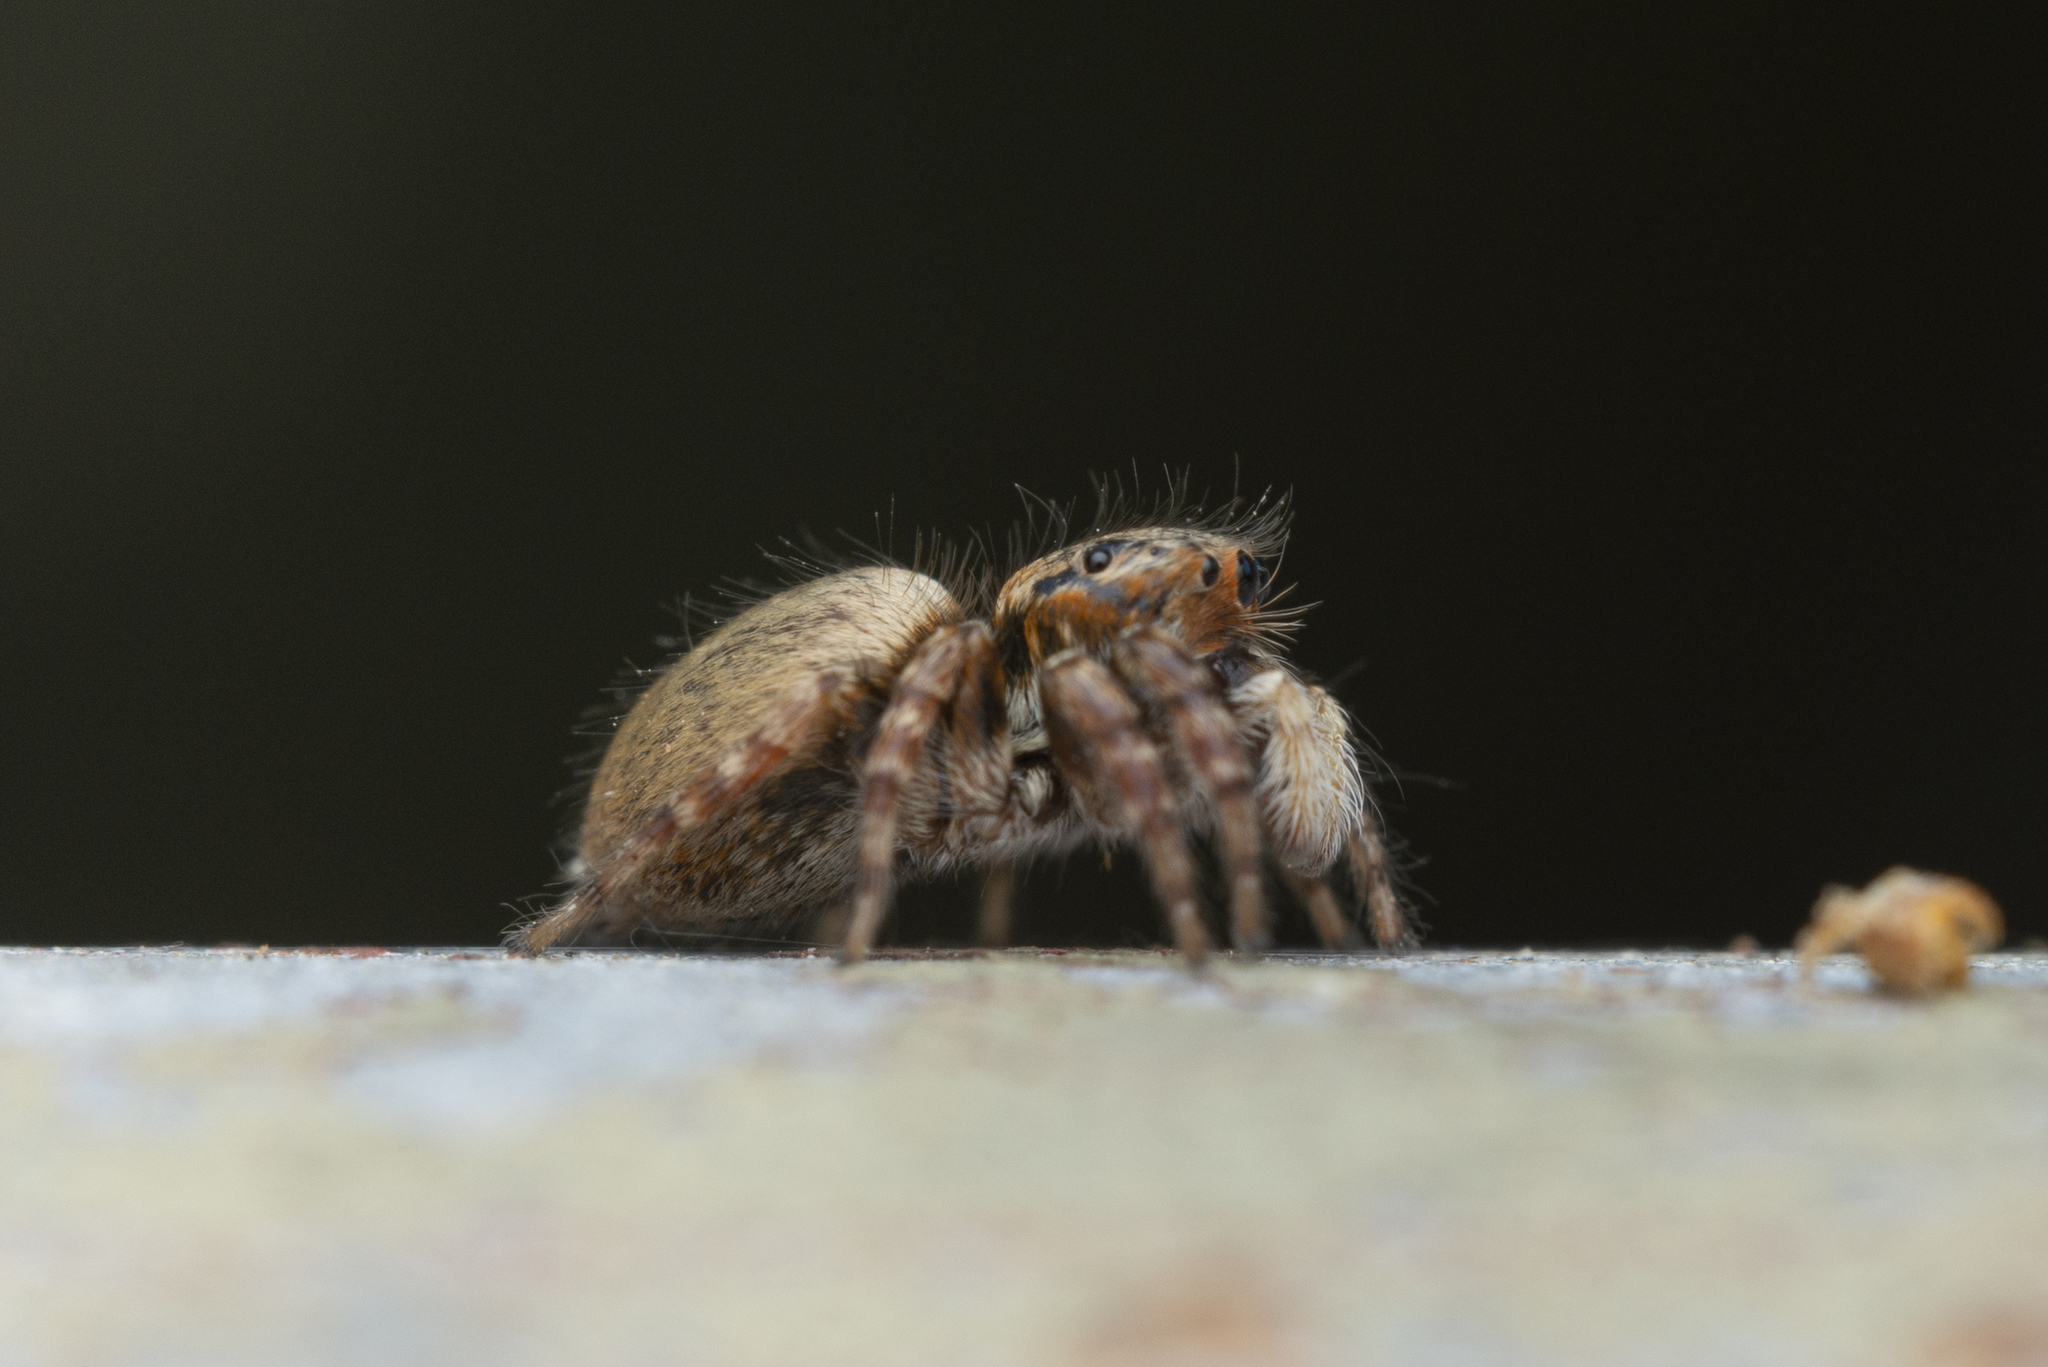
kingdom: Animalia
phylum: Arthropoda
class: Arachnida
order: Araneae
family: Salticidae
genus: Carrhotus
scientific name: Carrhotus sannio
